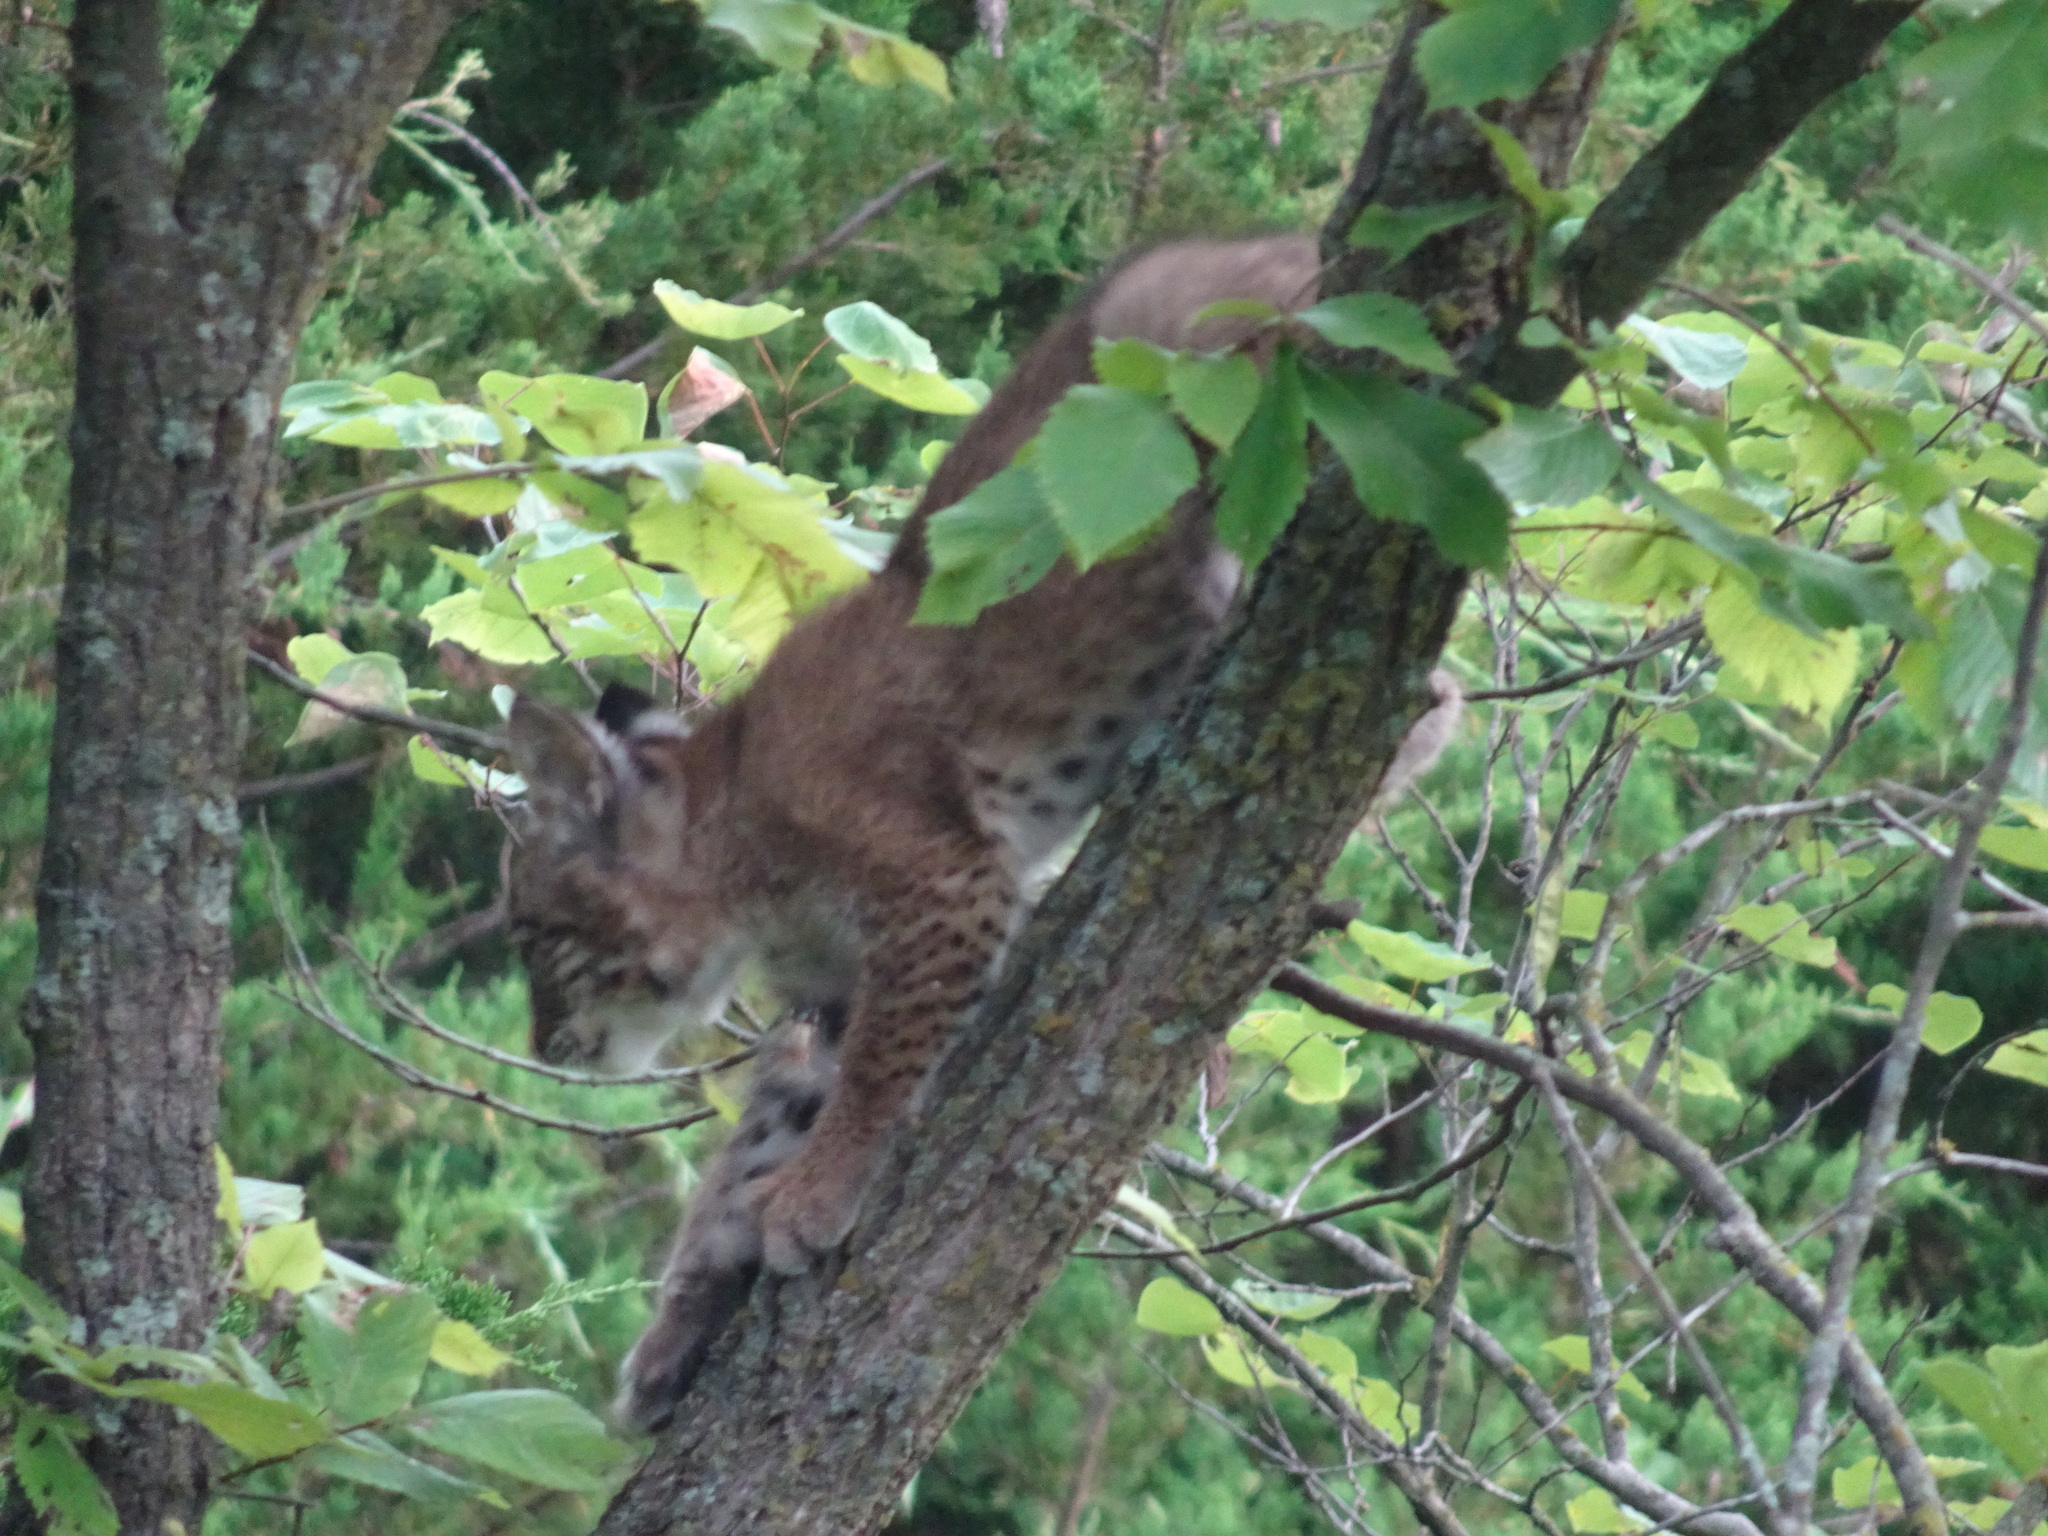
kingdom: Animalia
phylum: Chordata
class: Mammalia
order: Carnivora
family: Felidae
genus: Lynx
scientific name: Lynx rufus
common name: Bobcat
